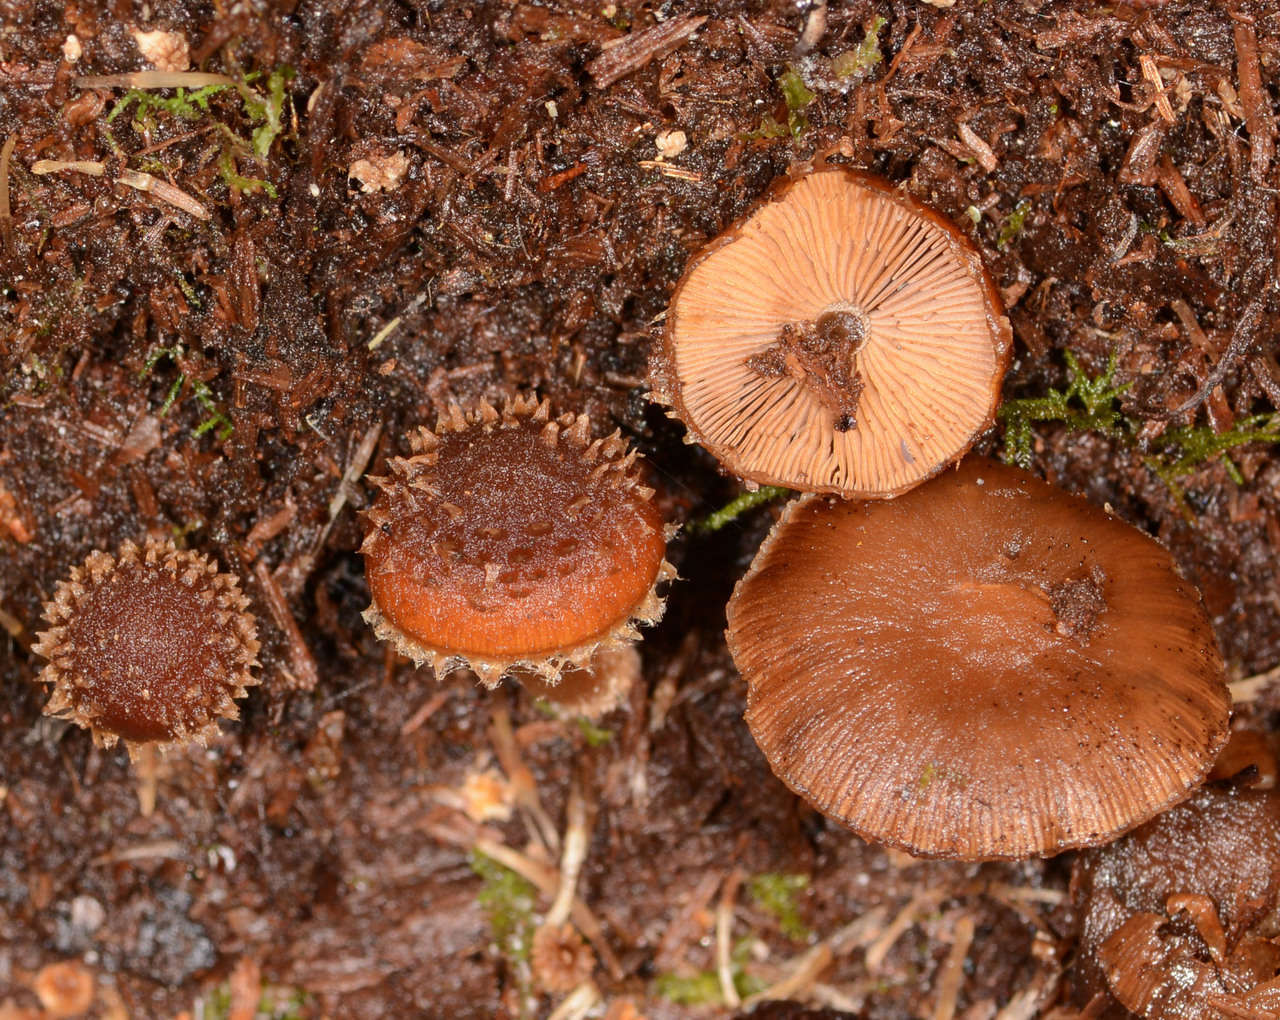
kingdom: Fungi
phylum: Basidiomycota
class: Agaricomycetes
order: Agaricales
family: Psathyrellaceae
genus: Psathyrella
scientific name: Psathyrella echinata
